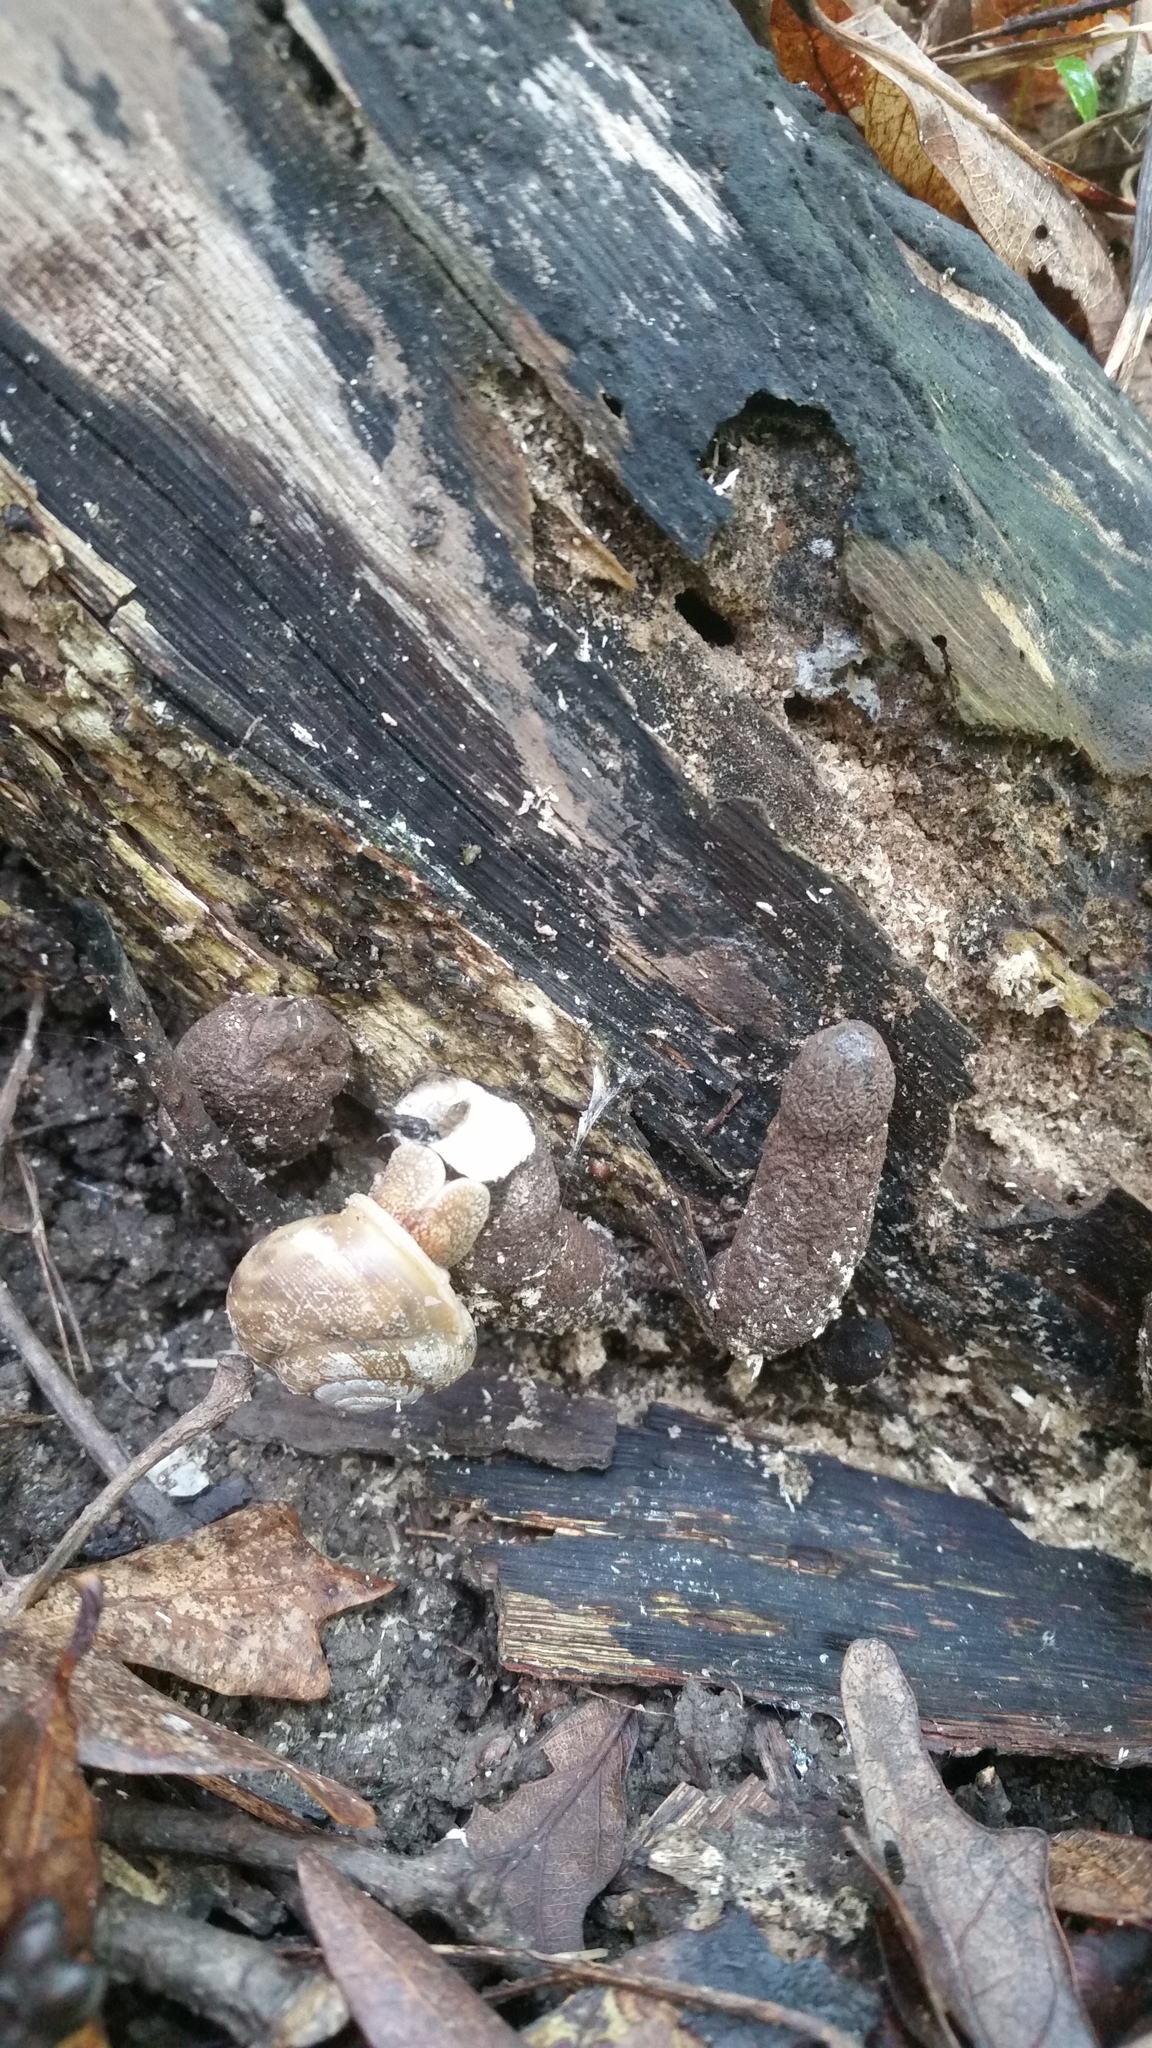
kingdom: Fungi
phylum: Ascomycota
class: Sordariomycetes
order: Xylariales
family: Xylariaceae
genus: Xylaria
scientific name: Xylaria polymorpha
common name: Dead man's fingers
